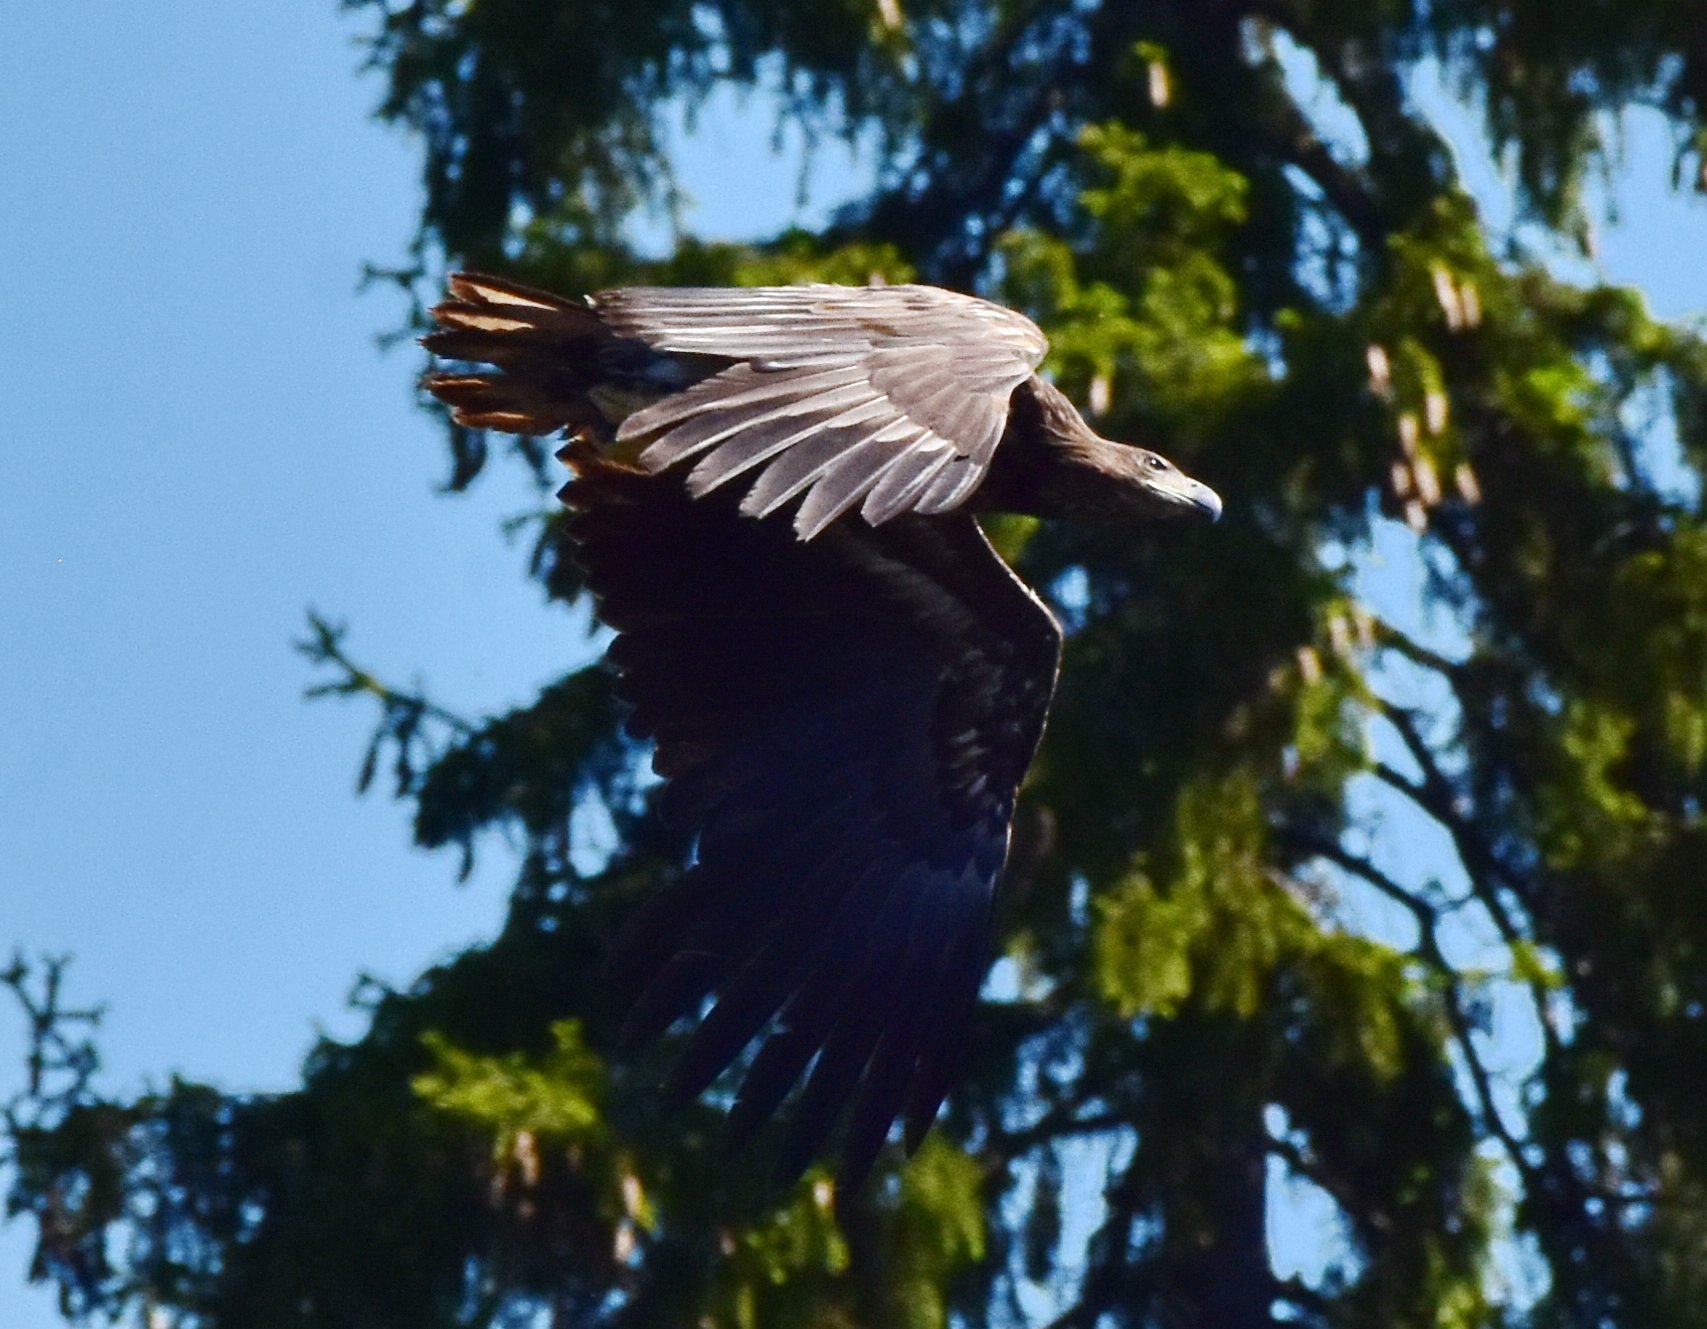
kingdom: Animalia
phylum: Chordata
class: Aves
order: Accipitriformes
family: Accipitridae
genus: Haliaeetus
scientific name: Haliaeetus albicilla
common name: White-tailed eagle
